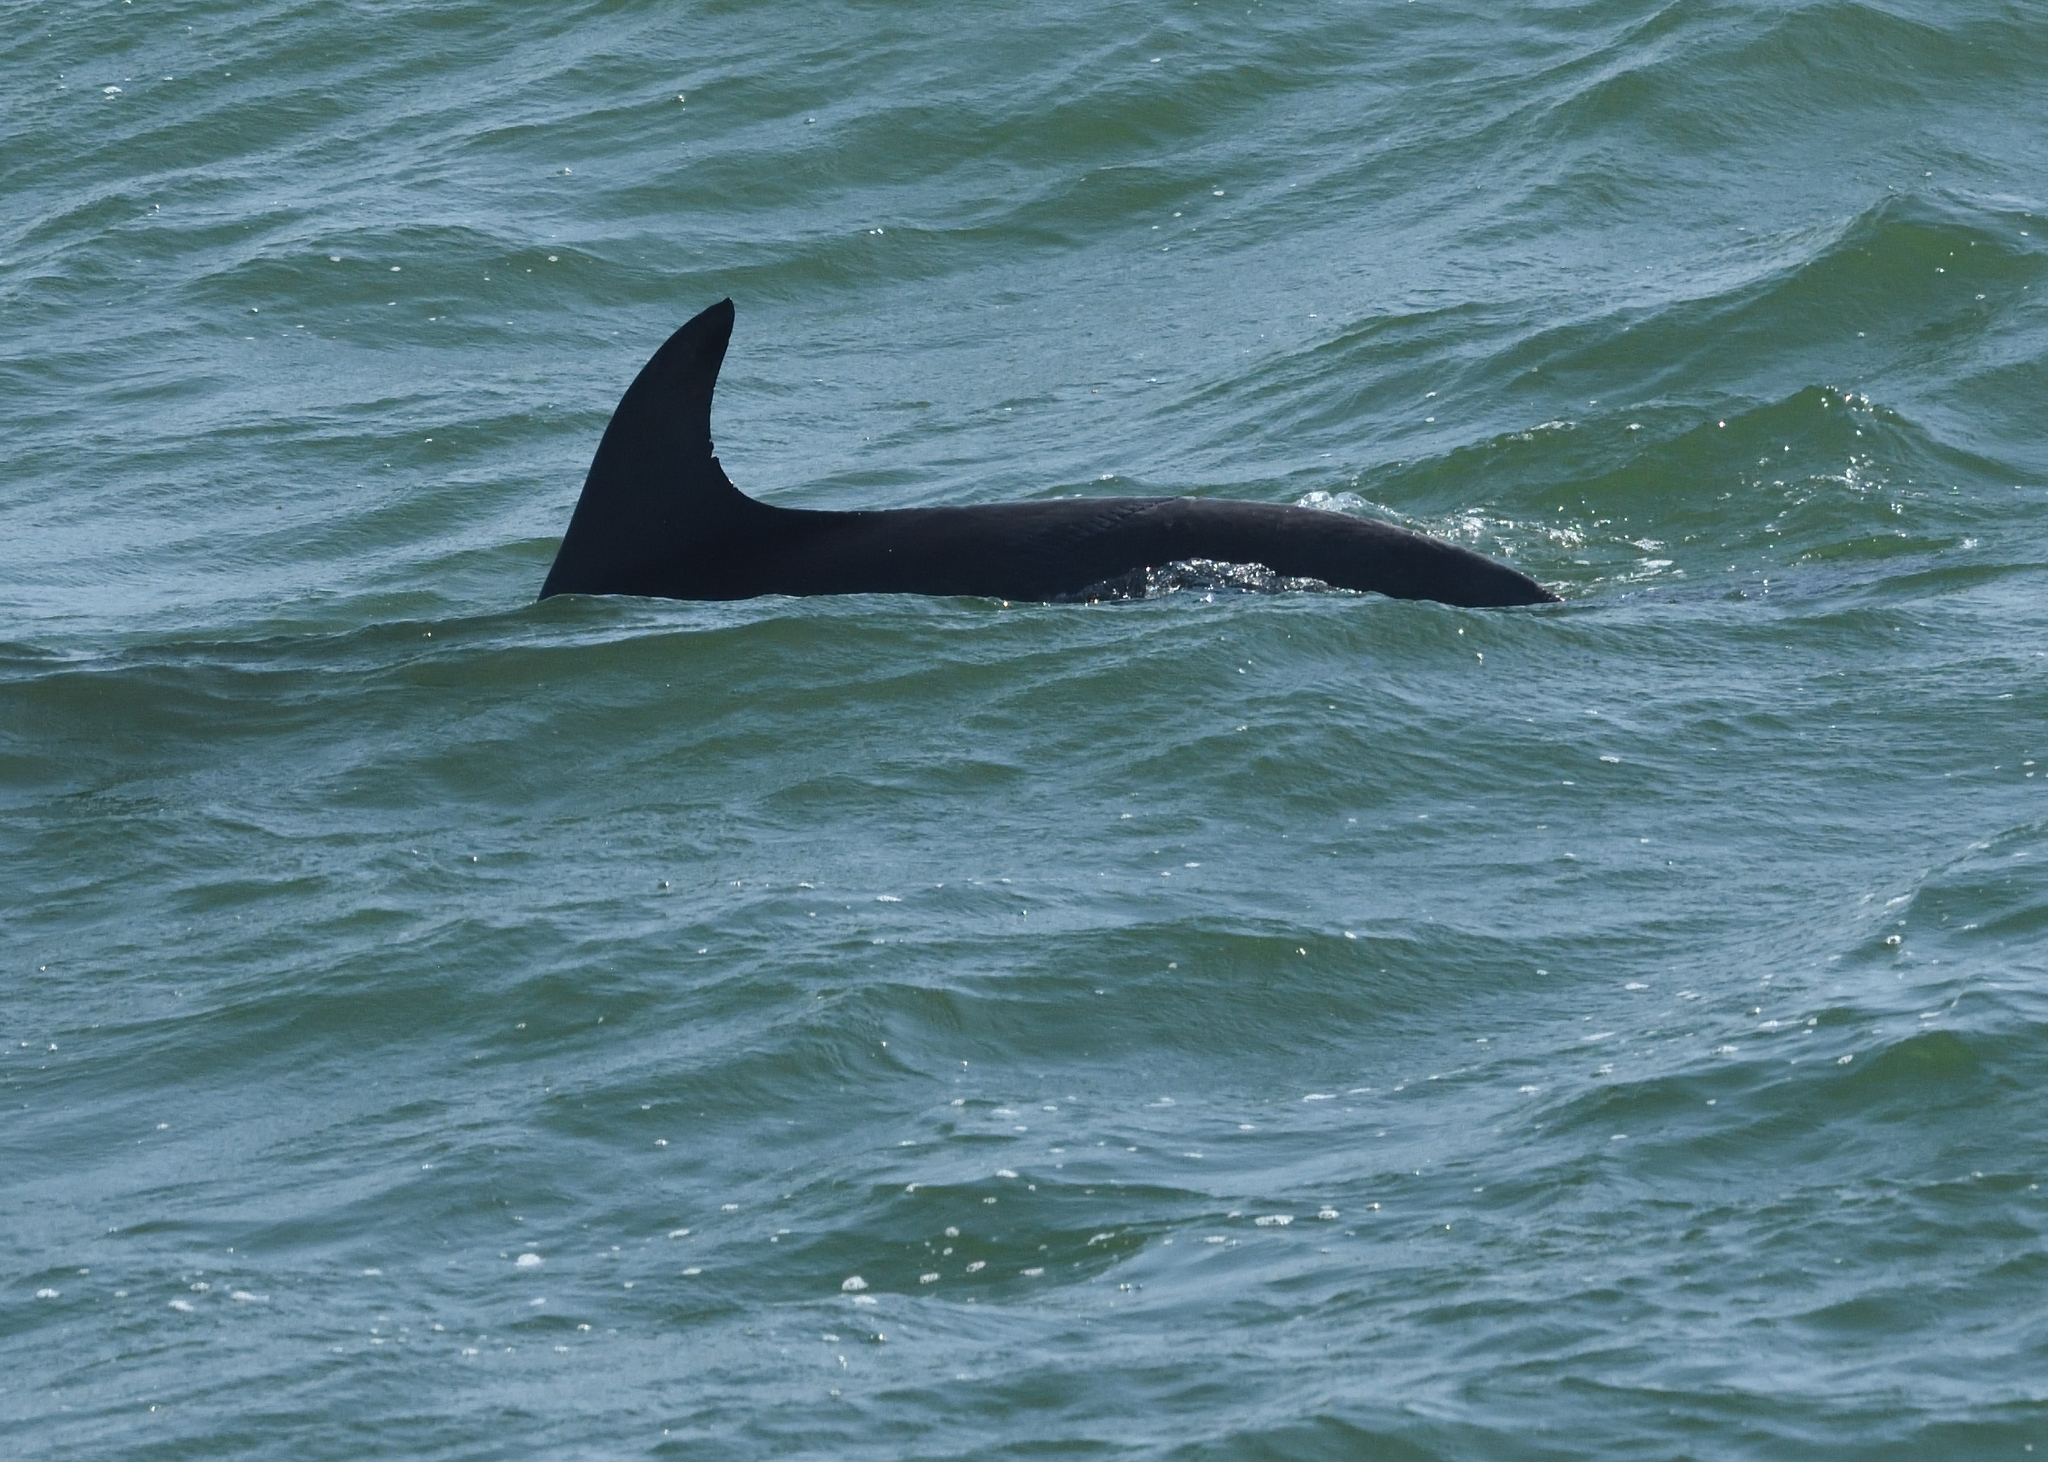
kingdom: Animalia
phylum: Chordata
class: Mammalia
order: Cetacea
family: Delphinidae
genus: Tursiops
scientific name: Tursiops truncatus
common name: Bottlenose dolphin
